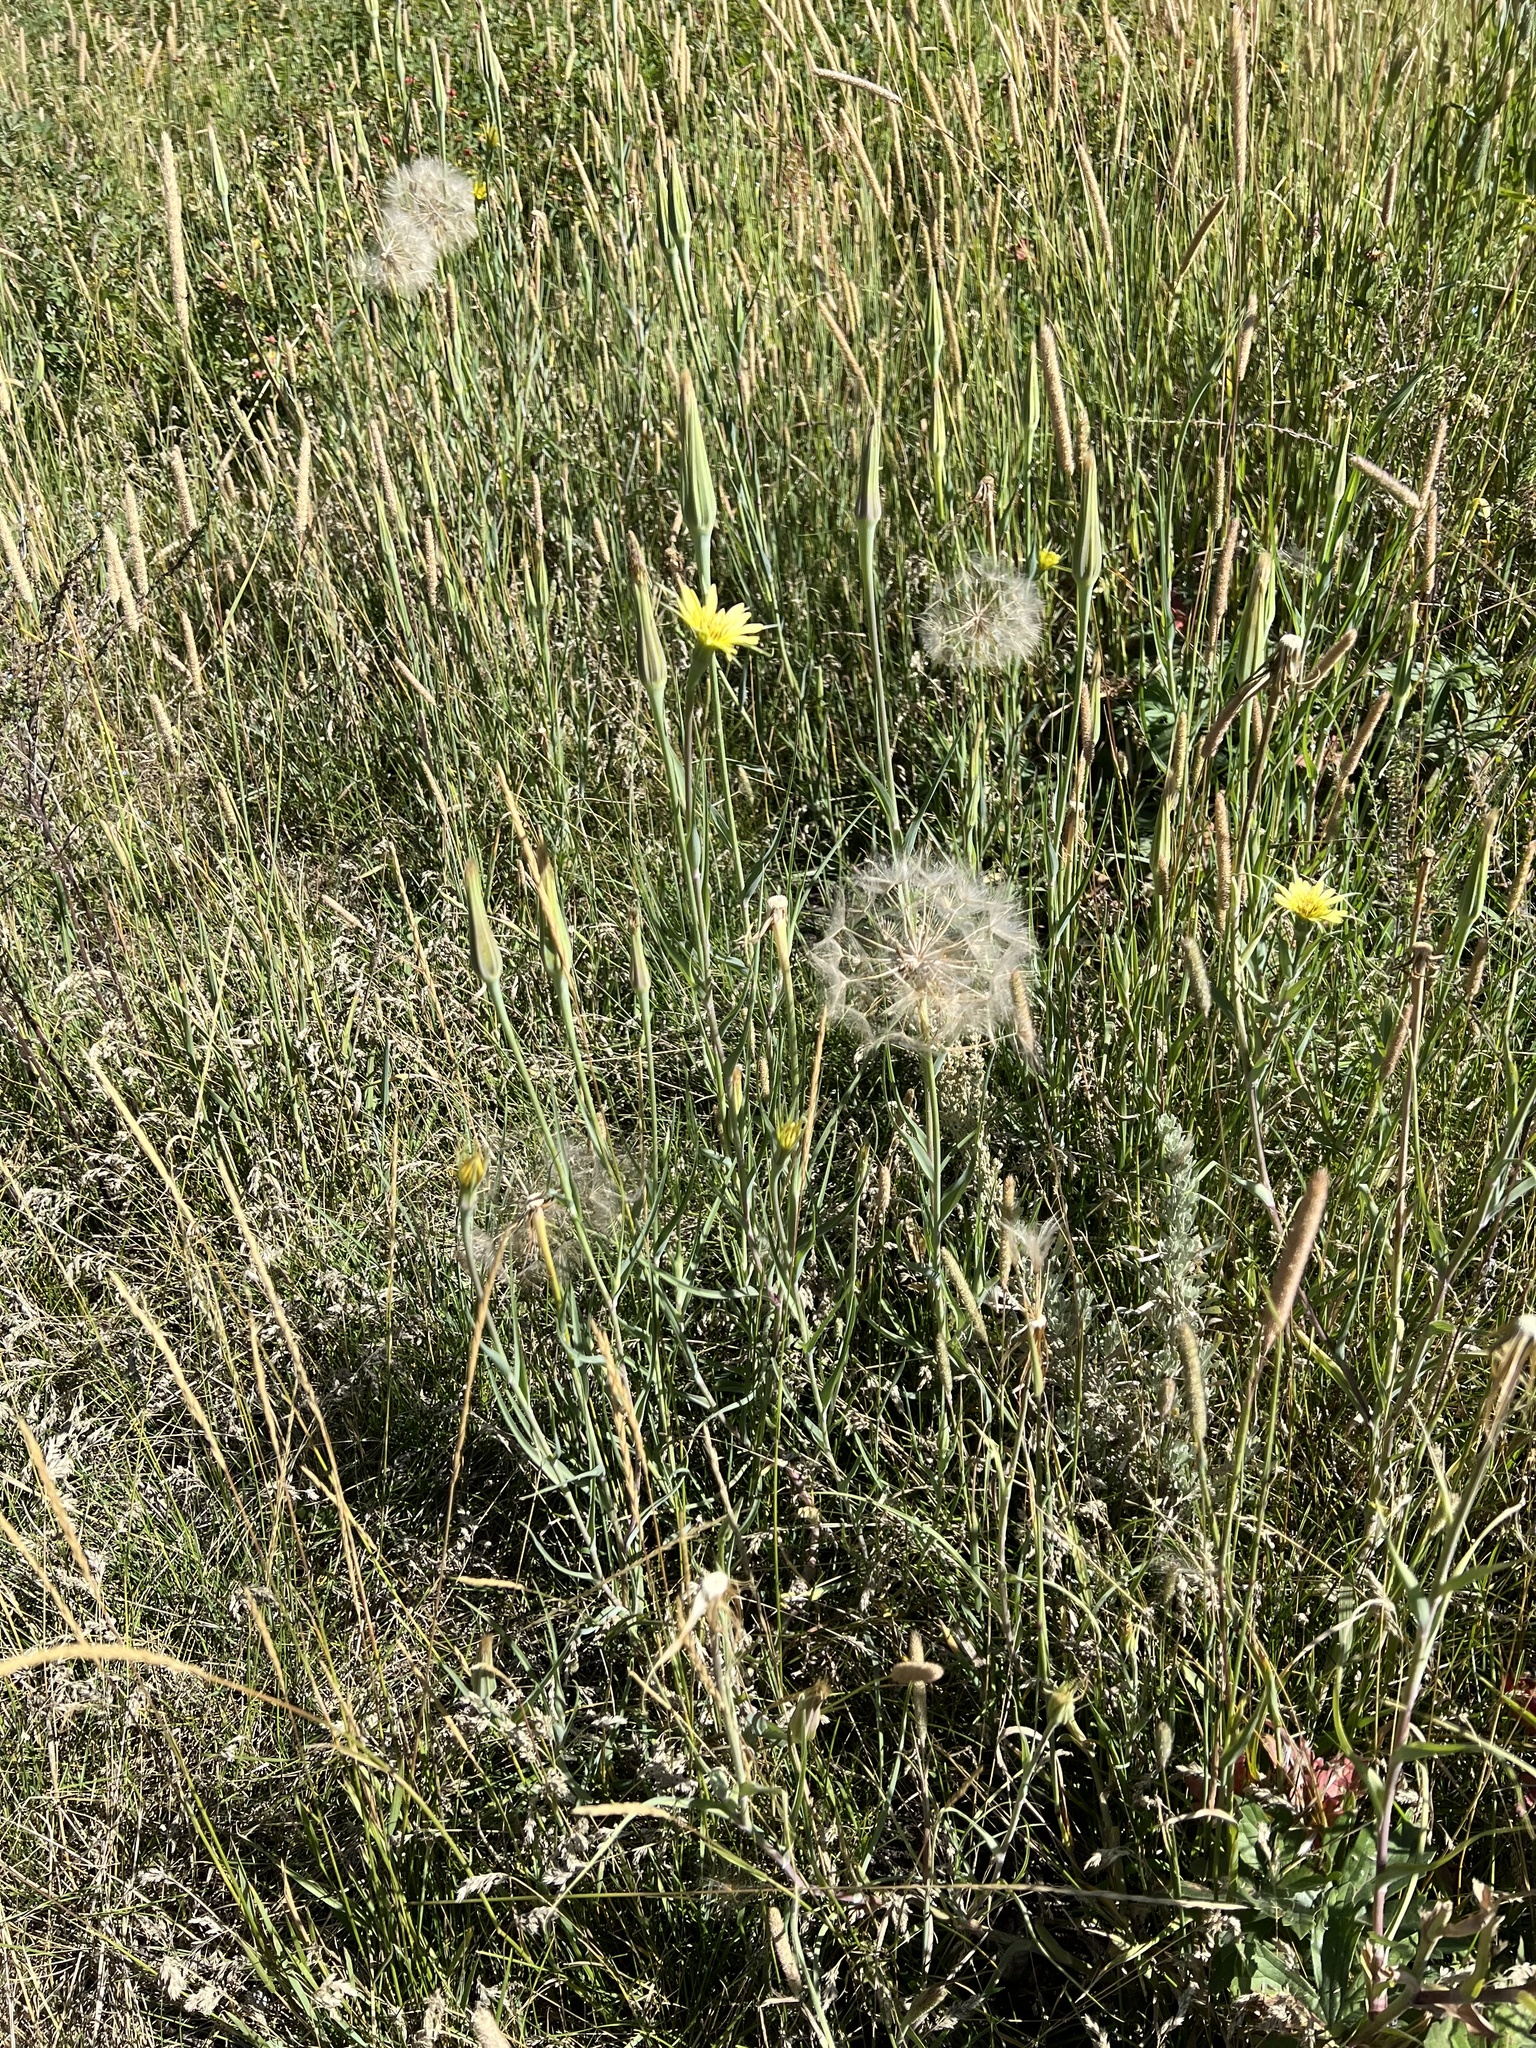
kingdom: Plantae
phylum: Tracheophyta
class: Magnoliopsida
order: Asterales
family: Asteraceae
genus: Tragopogon
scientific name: Tragopogon dubius
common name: Yellow salsify
